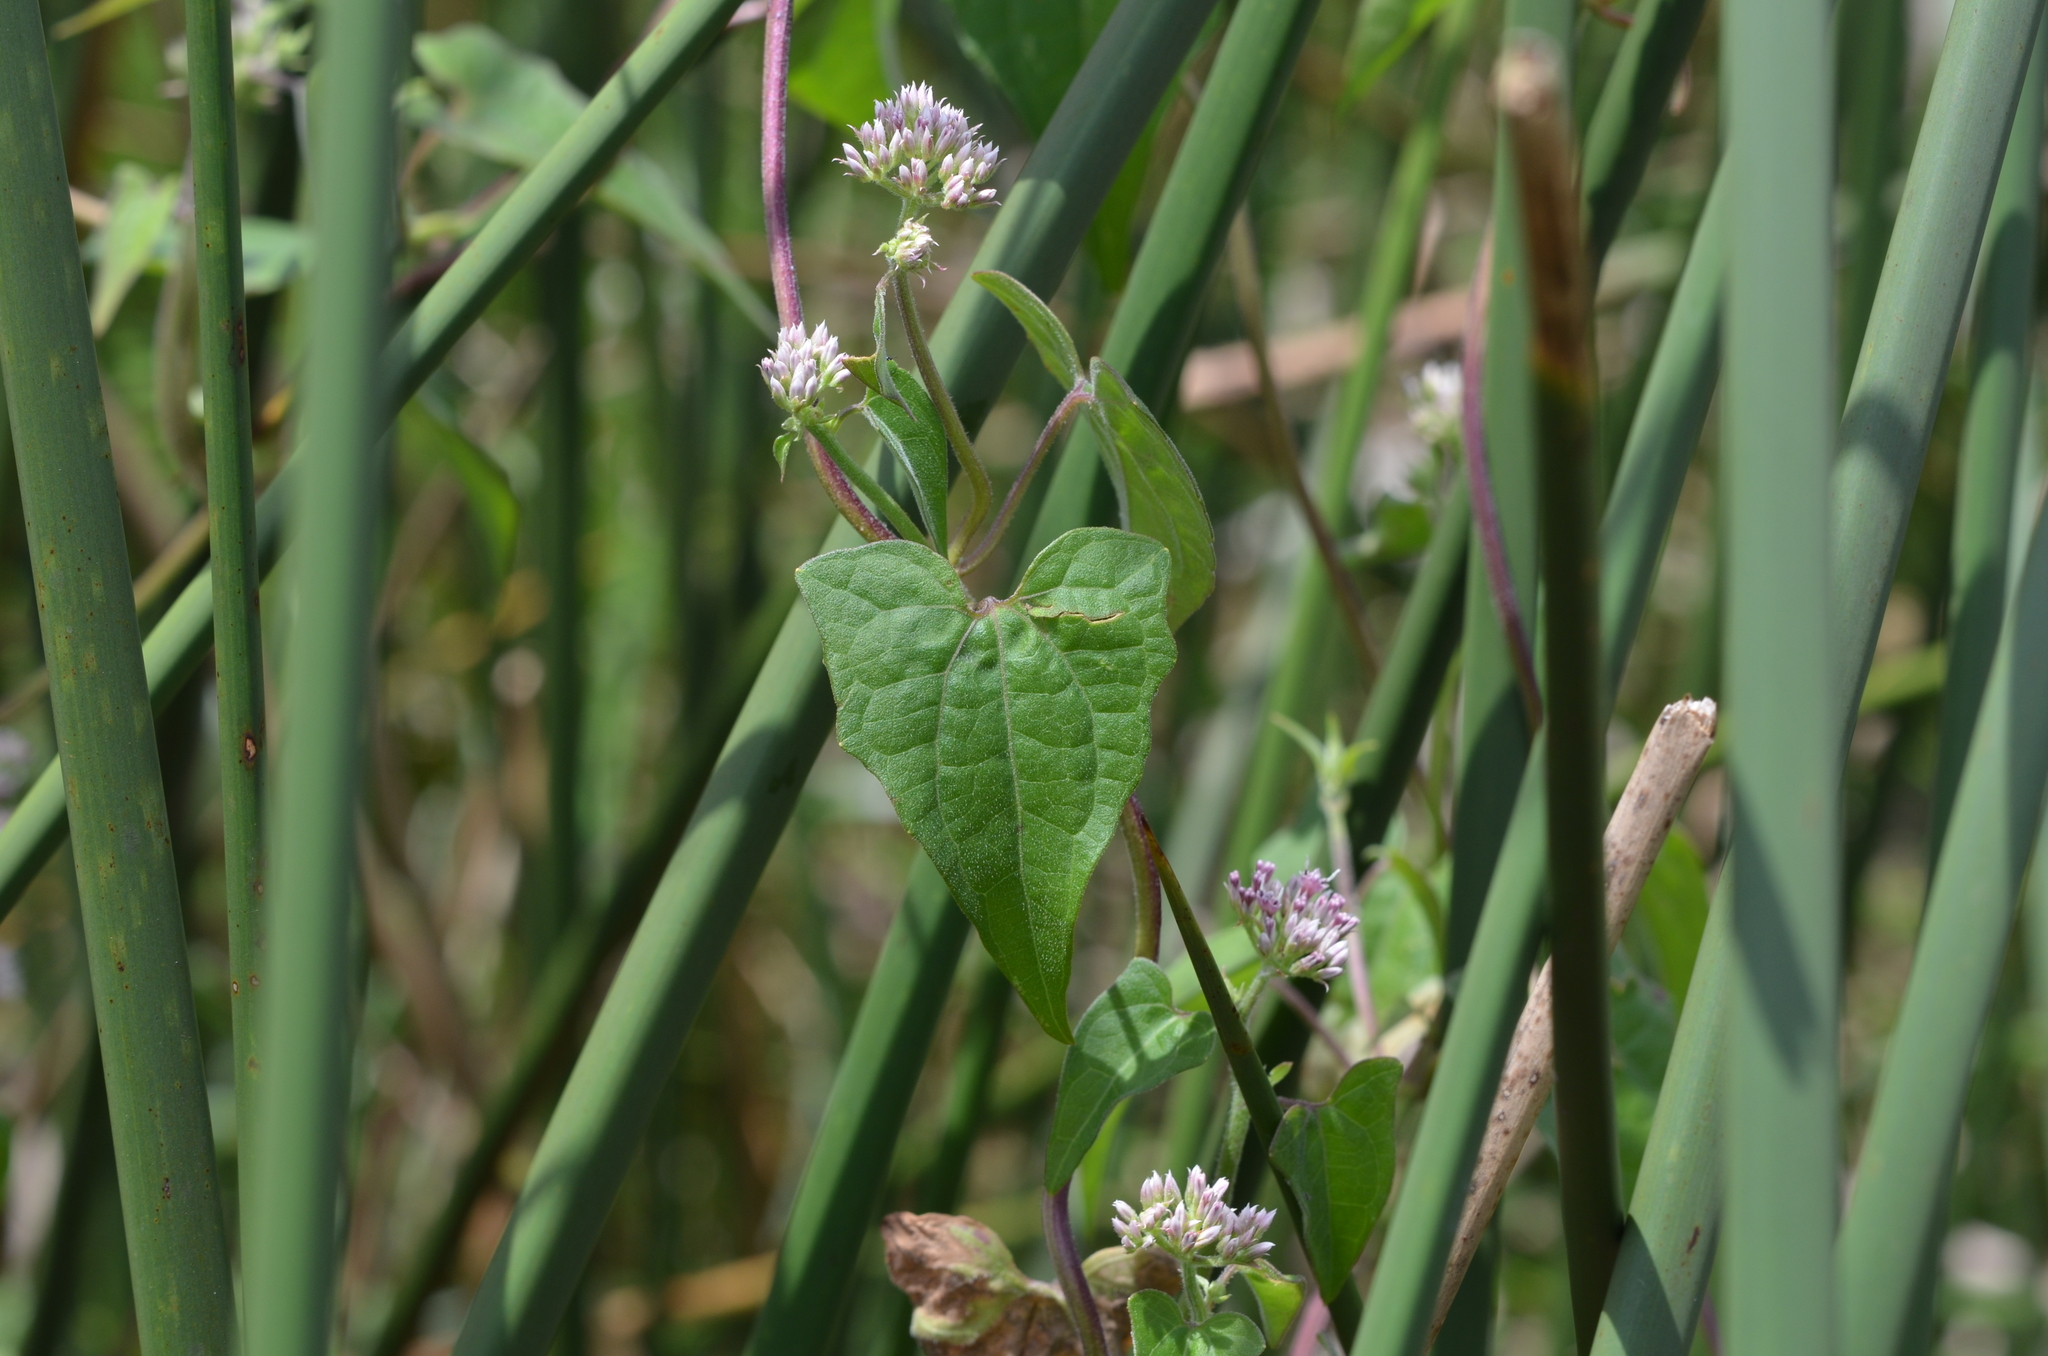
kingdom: Plantae
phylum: Tracheophyta
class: Magnoliopsida
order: Asterales
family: Asteraceae
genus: Mikania
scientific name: Mikania scandens
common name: Climbing hempvine
